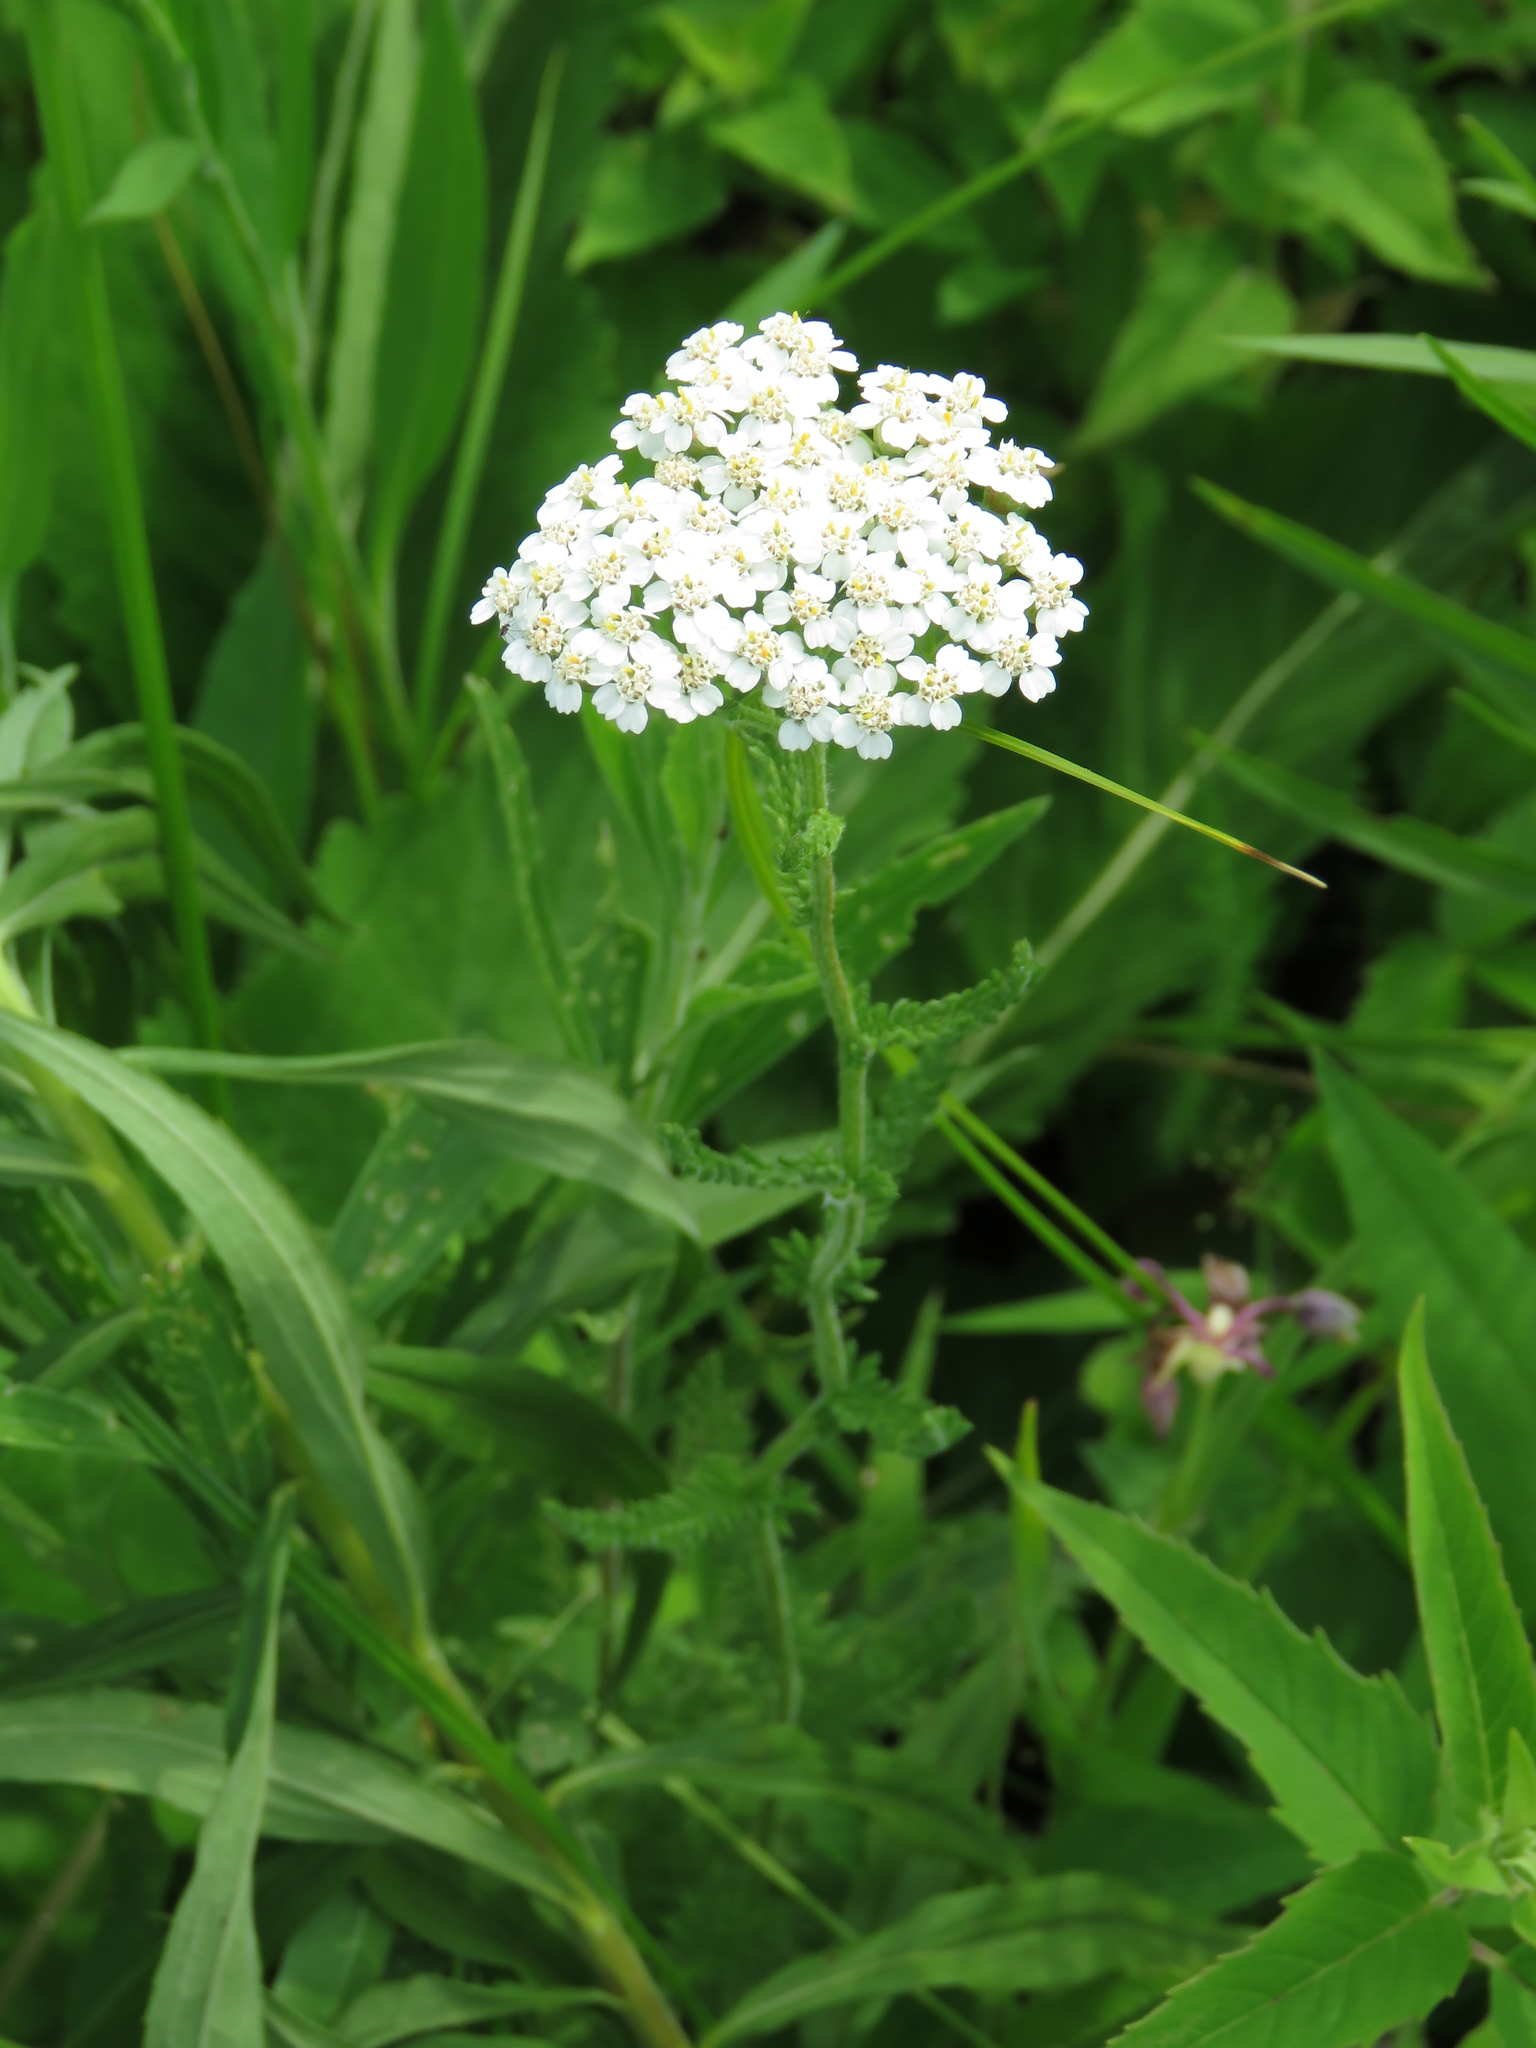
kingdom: Plantae
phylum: Tracheophyta
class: Magnoliopsida
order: Asterales
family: Asteraceae
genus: Achillea
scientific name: Achillea millefolium
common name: Yarrow
